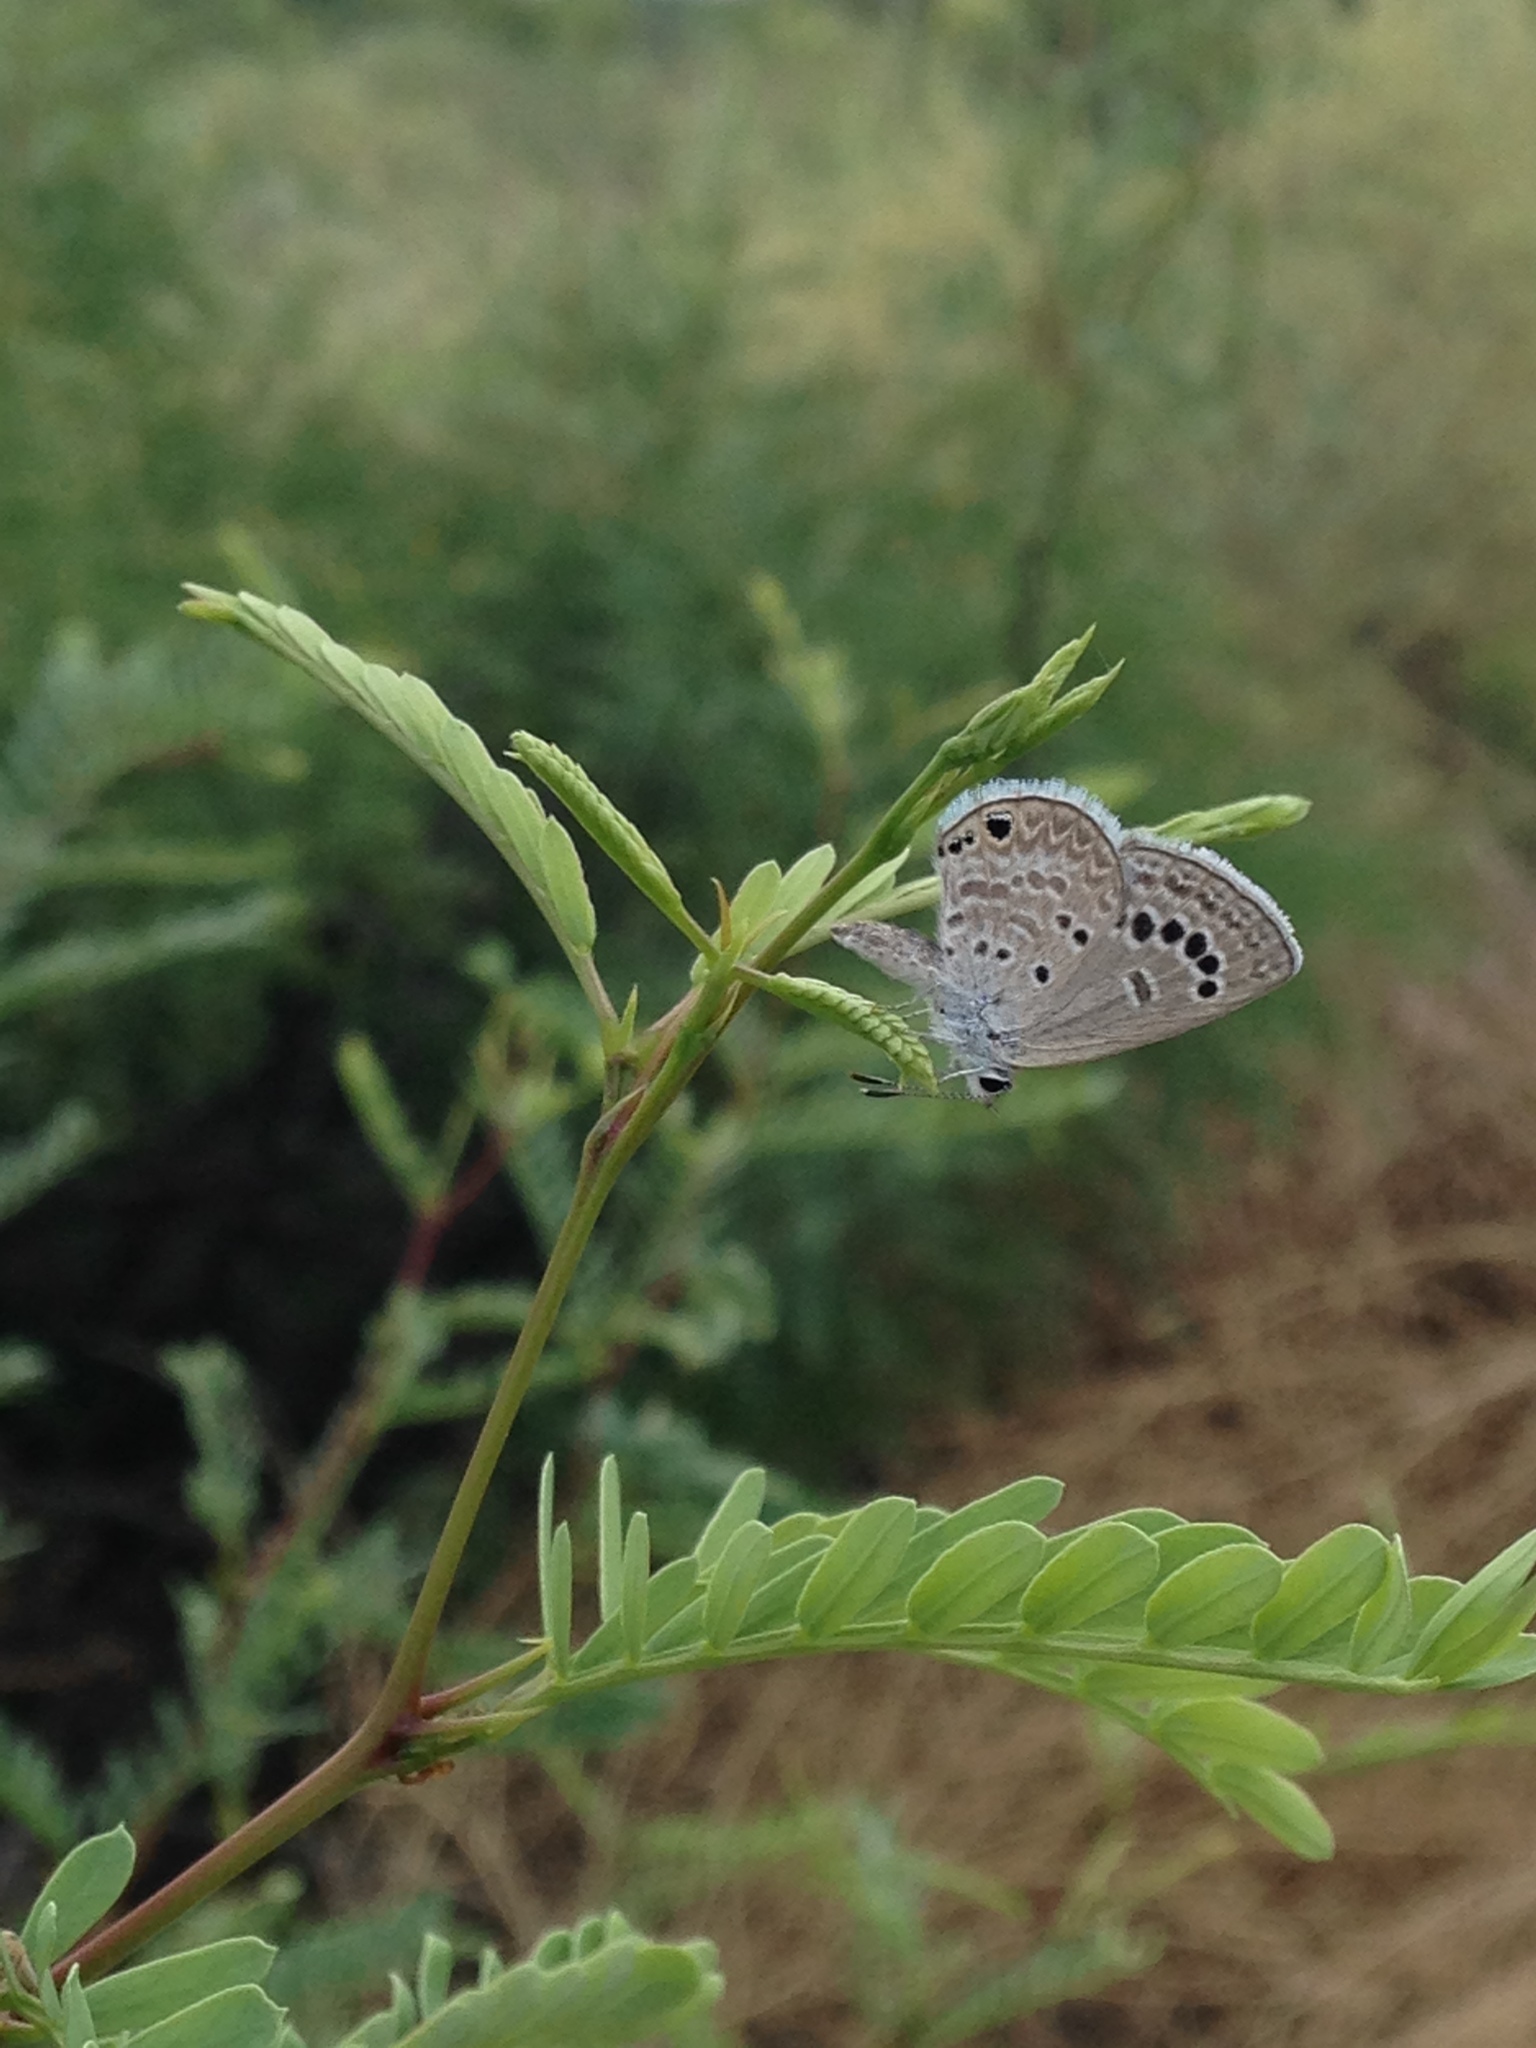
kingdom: Animalia
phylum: Arthropoda
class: Insecta
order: Lepidoptera
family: Lycaenidae
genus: Echinargus
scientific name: Echinargus isola
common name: Reakirt's blue
